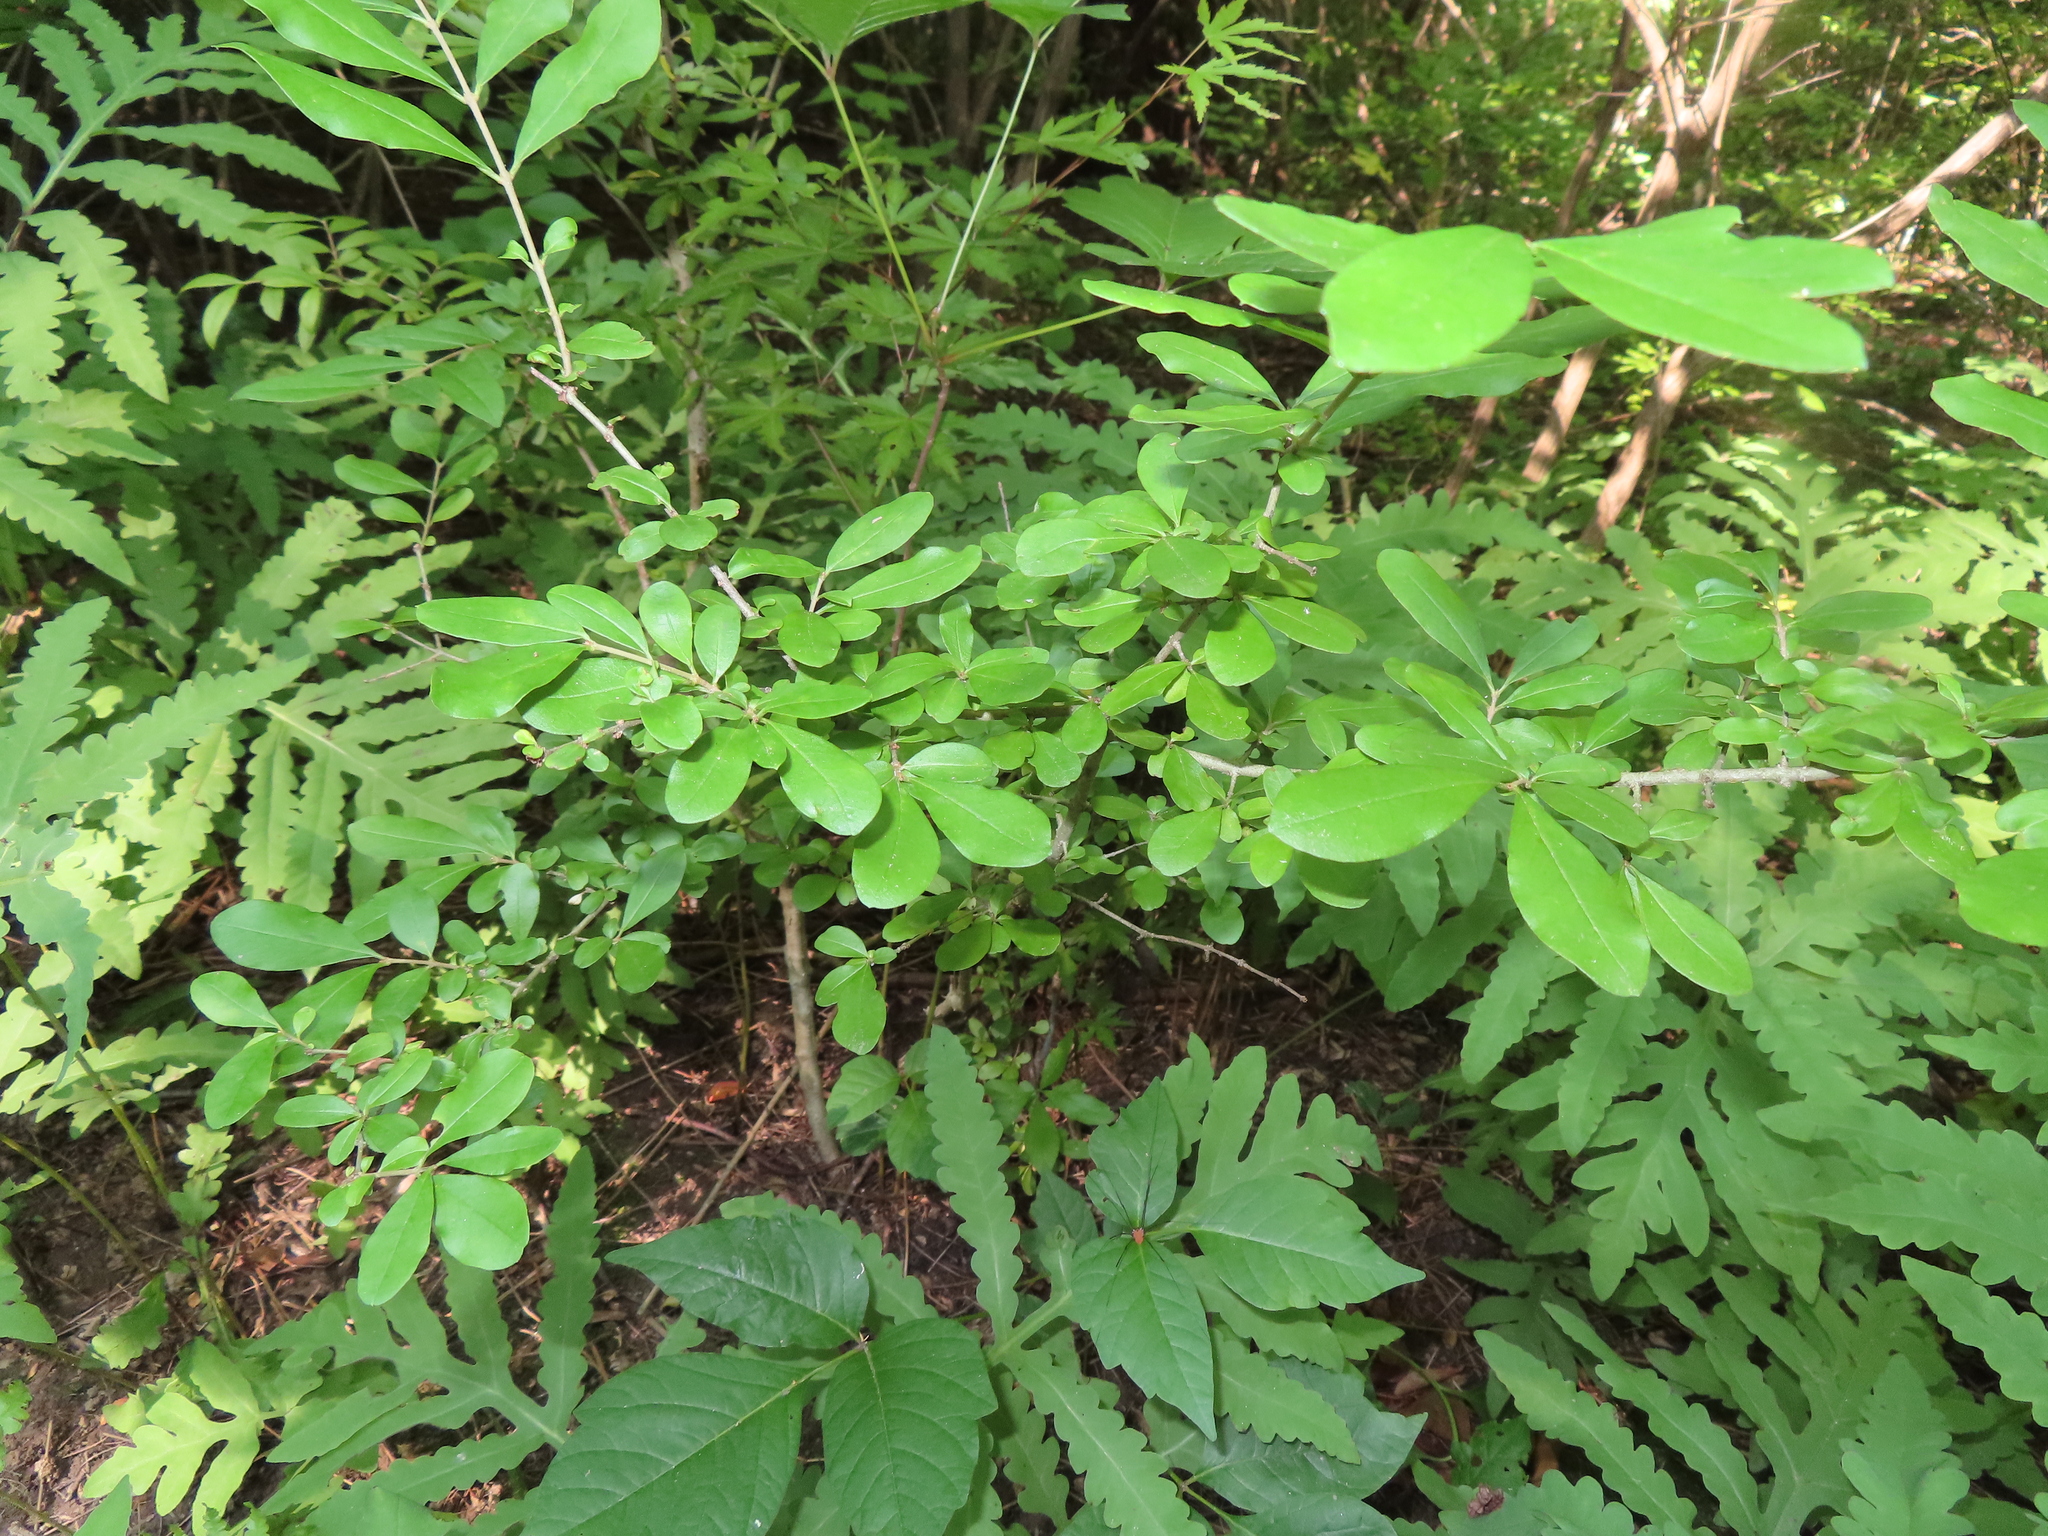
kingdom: Plantae
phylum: Tracheophyta
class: Magnoliopsida
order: Lamiales
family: Oleaceae
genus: Ligustrum
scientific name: Ligustrum obtusifolium
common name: Border privet
